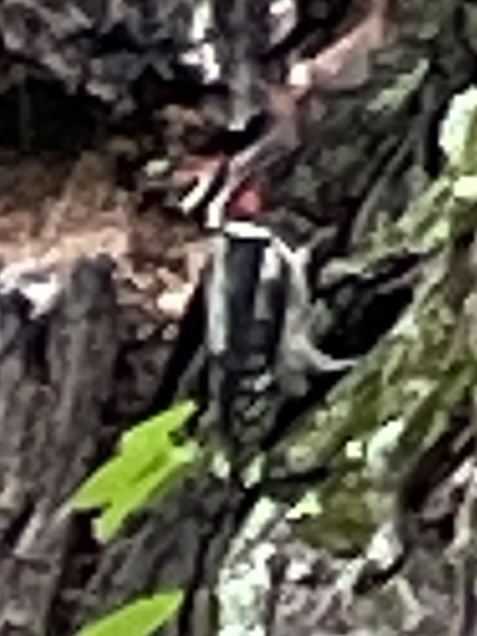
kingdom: Animalia
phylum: Chordata
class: Aves
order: Piciformes
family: Picidae
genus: Sphyrapicus
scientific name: Sphyrapicus varius
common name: Yellow-bellied sapsucker
